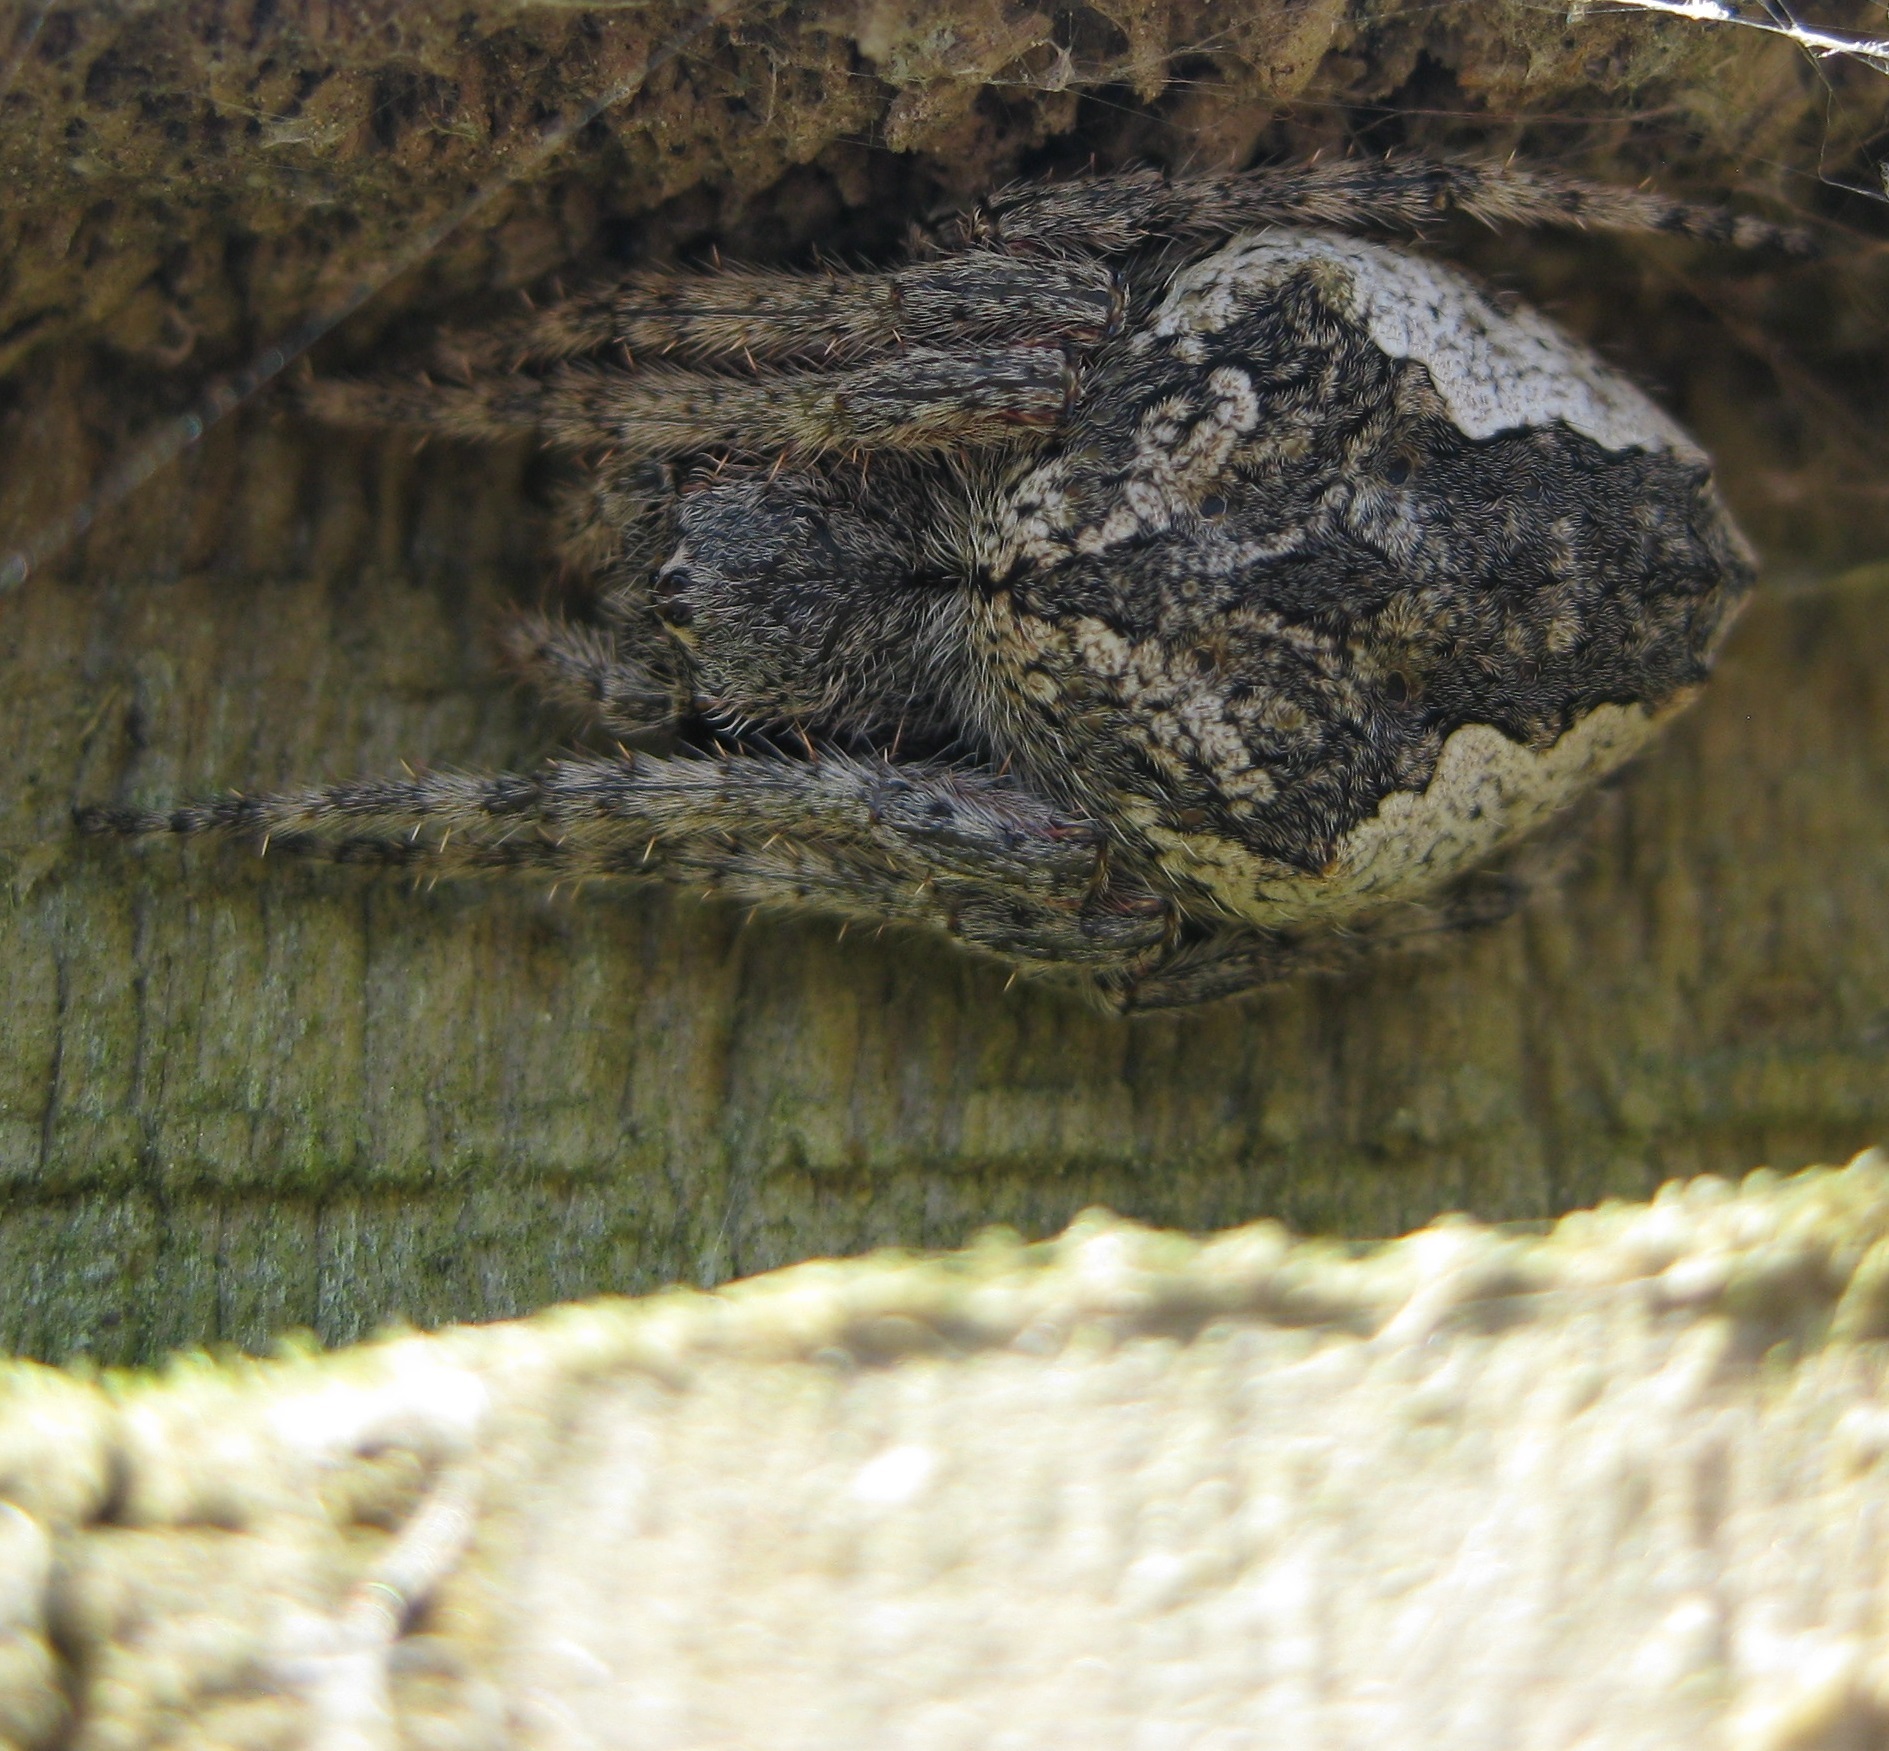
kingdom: Animalia
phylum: Arthropoda
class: Arachnida
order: Araneae
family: Araneidae
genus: Eriophora
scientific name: Eriophora pustulosa
